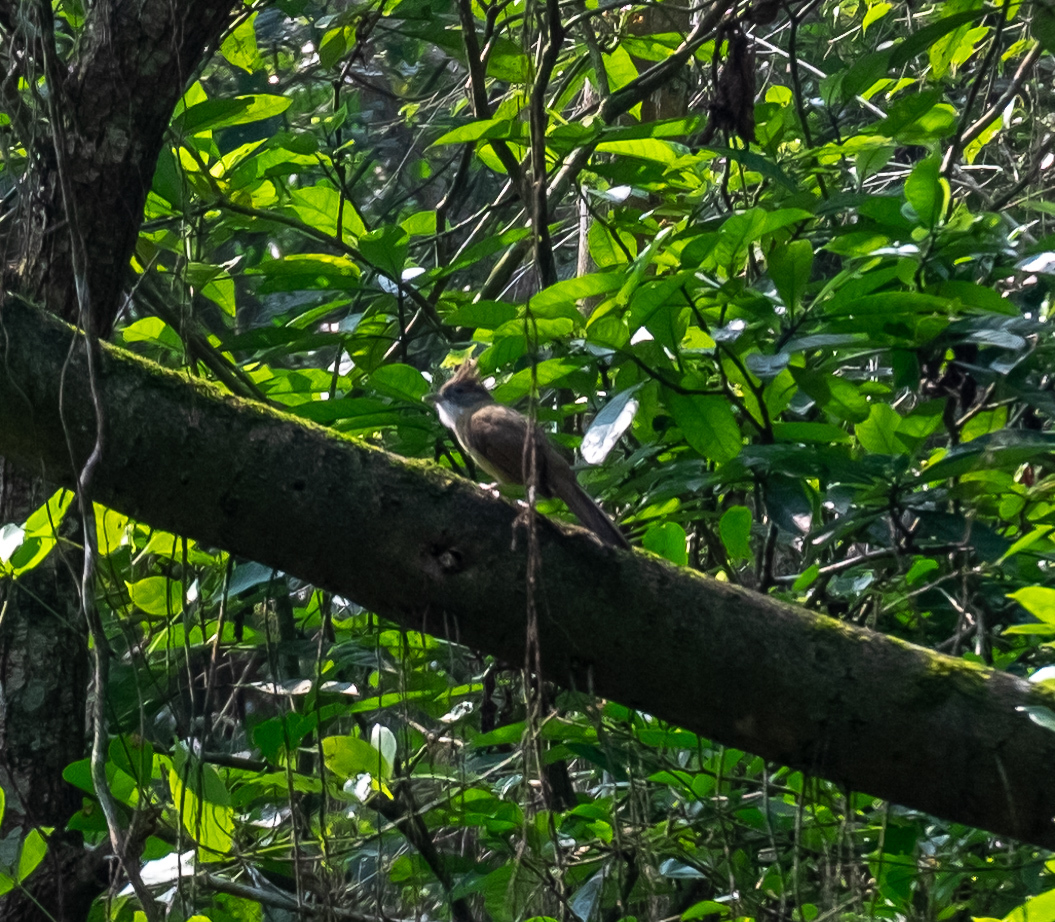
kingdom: Animalia
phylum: Chordata
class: Aves
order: Passeriformes
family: Pycnonotidae
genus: Alophoixus
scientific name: Alophoixus pallidus
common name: Puff-throated bulbul
